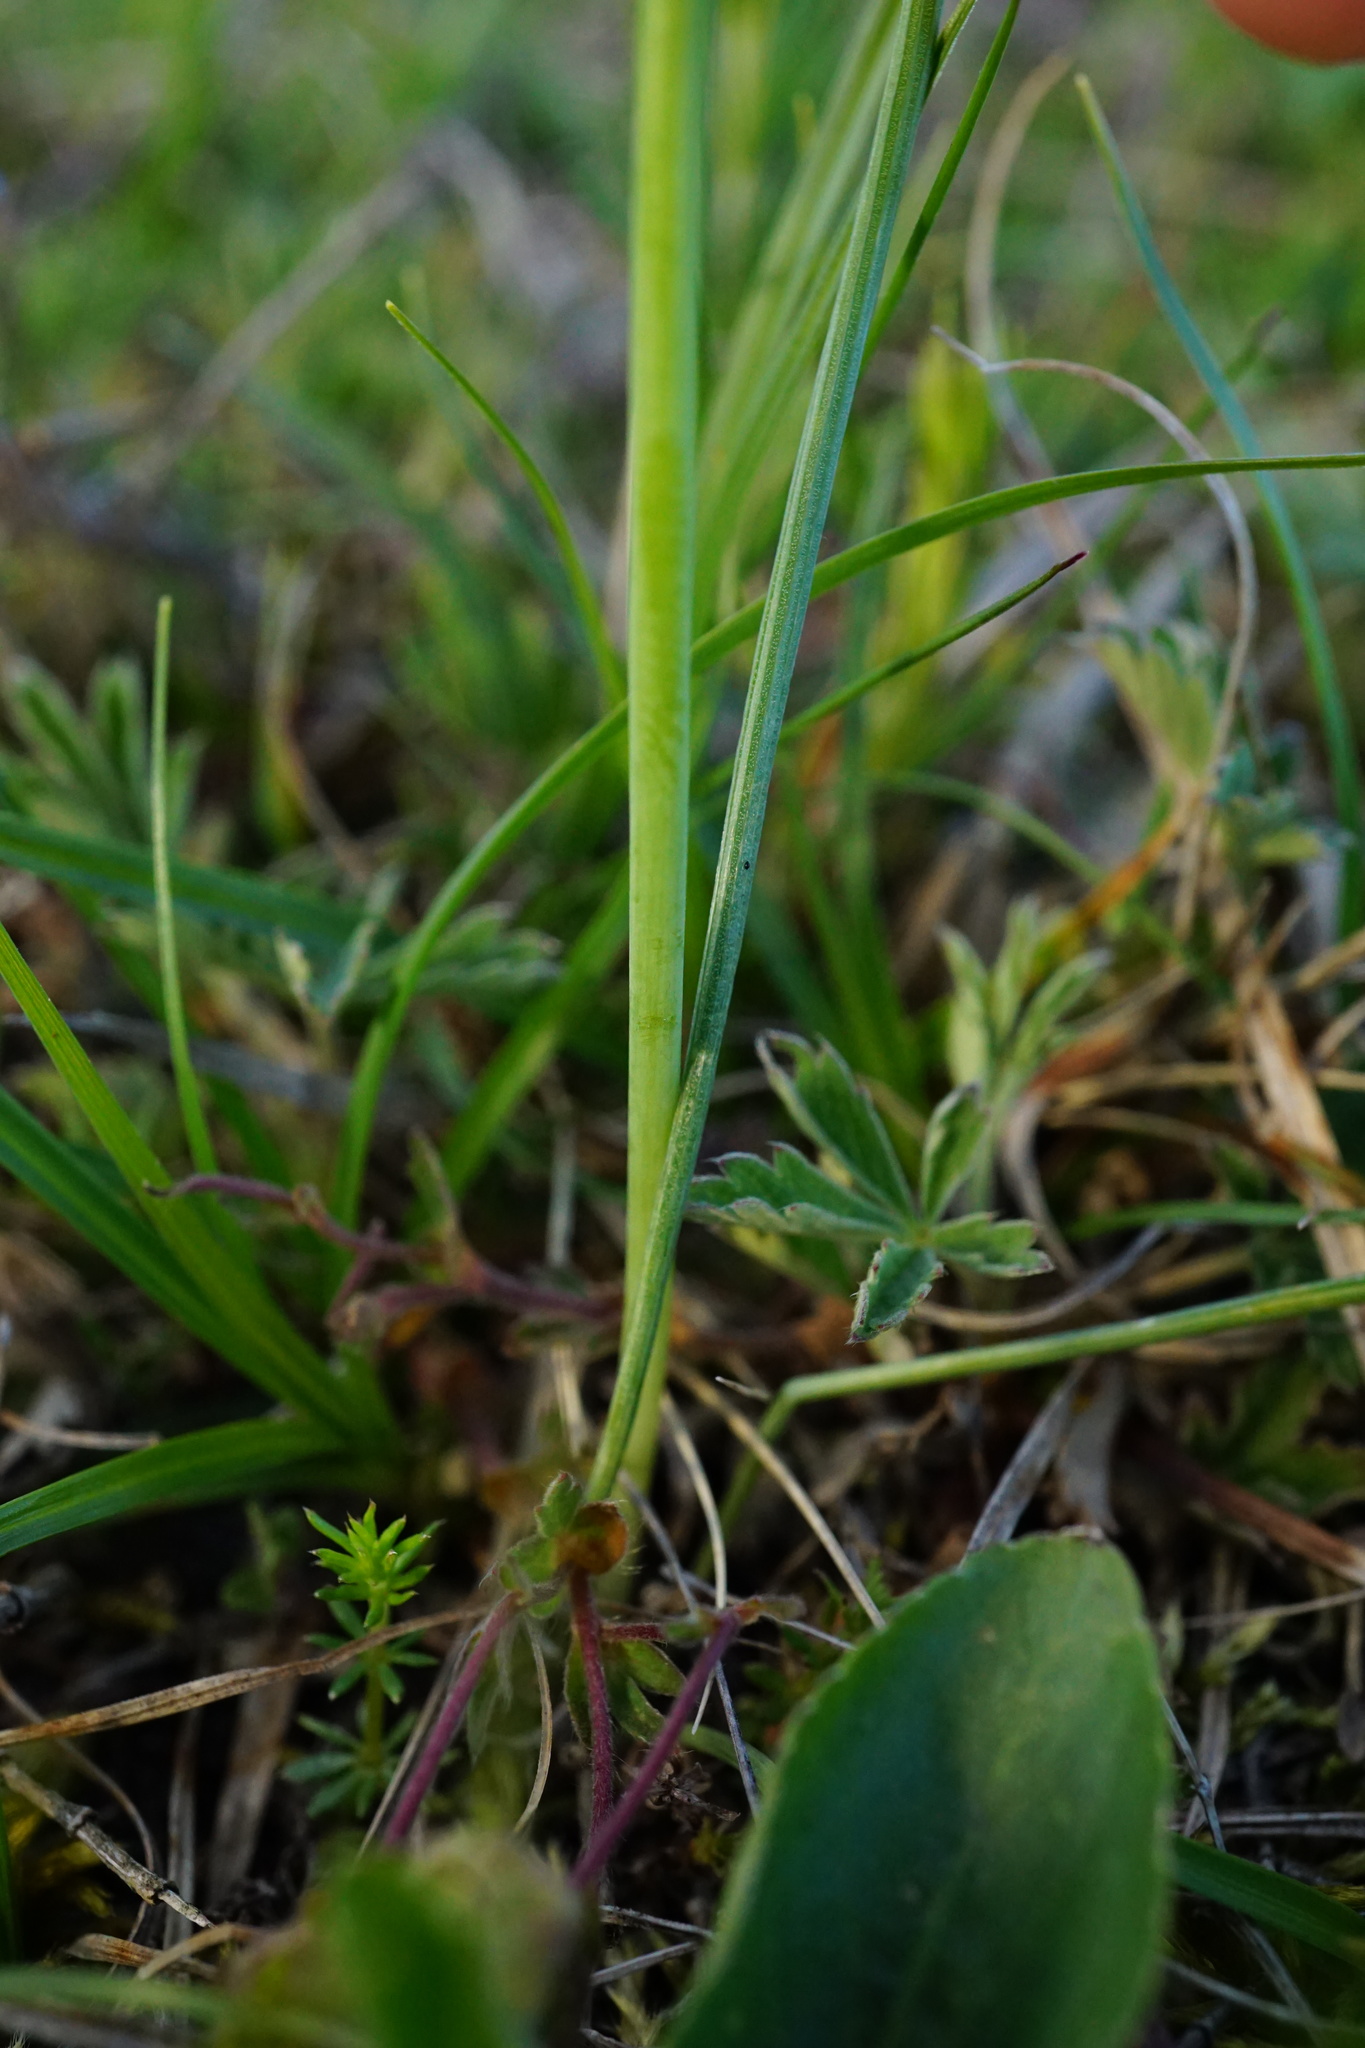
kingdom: Plantae
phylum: Tracheophyta
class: Liliopsida
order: Asparagales
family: Asparagaceae
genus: Ornithogalum
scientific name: Ornithogalum orthophyllum
